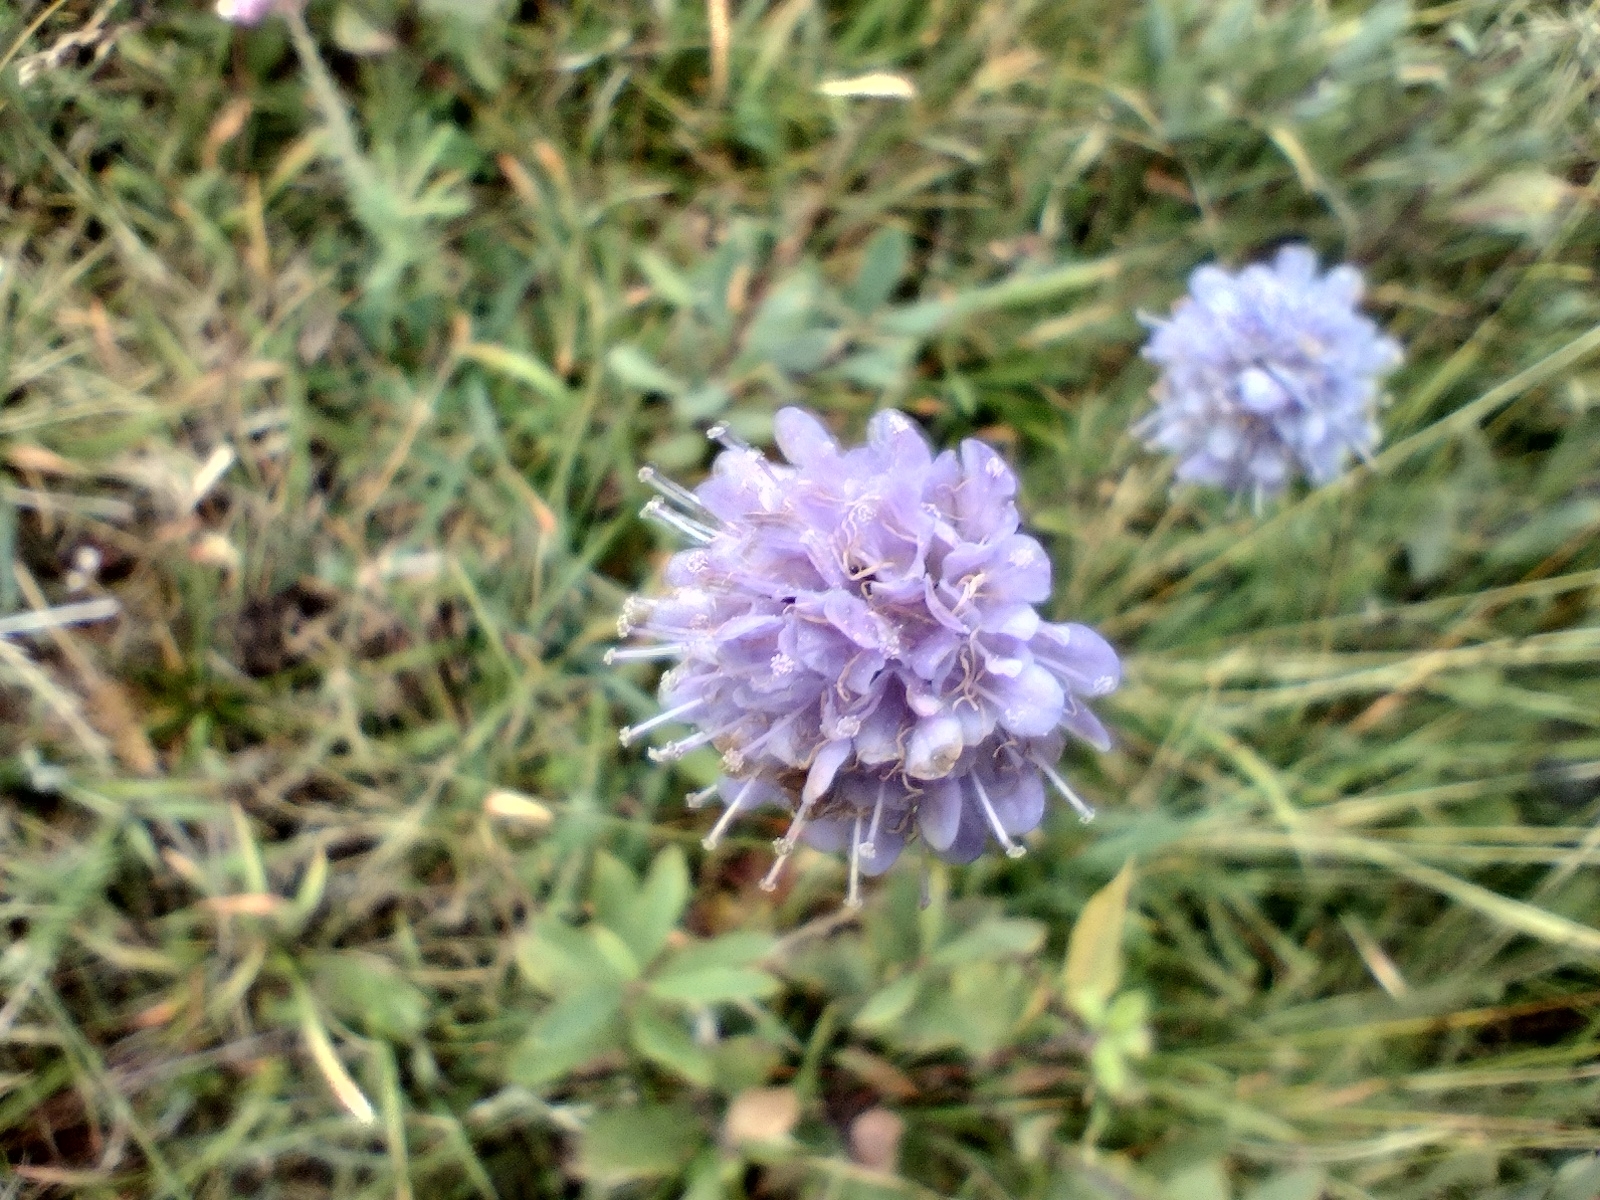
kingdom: Plantae
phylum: Tracheophyta
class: Magnoliopsida
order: Dipsacales
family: Caprifoliaceae
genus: Succisa
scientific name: Succisa pratensis
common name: Devil's-bit
